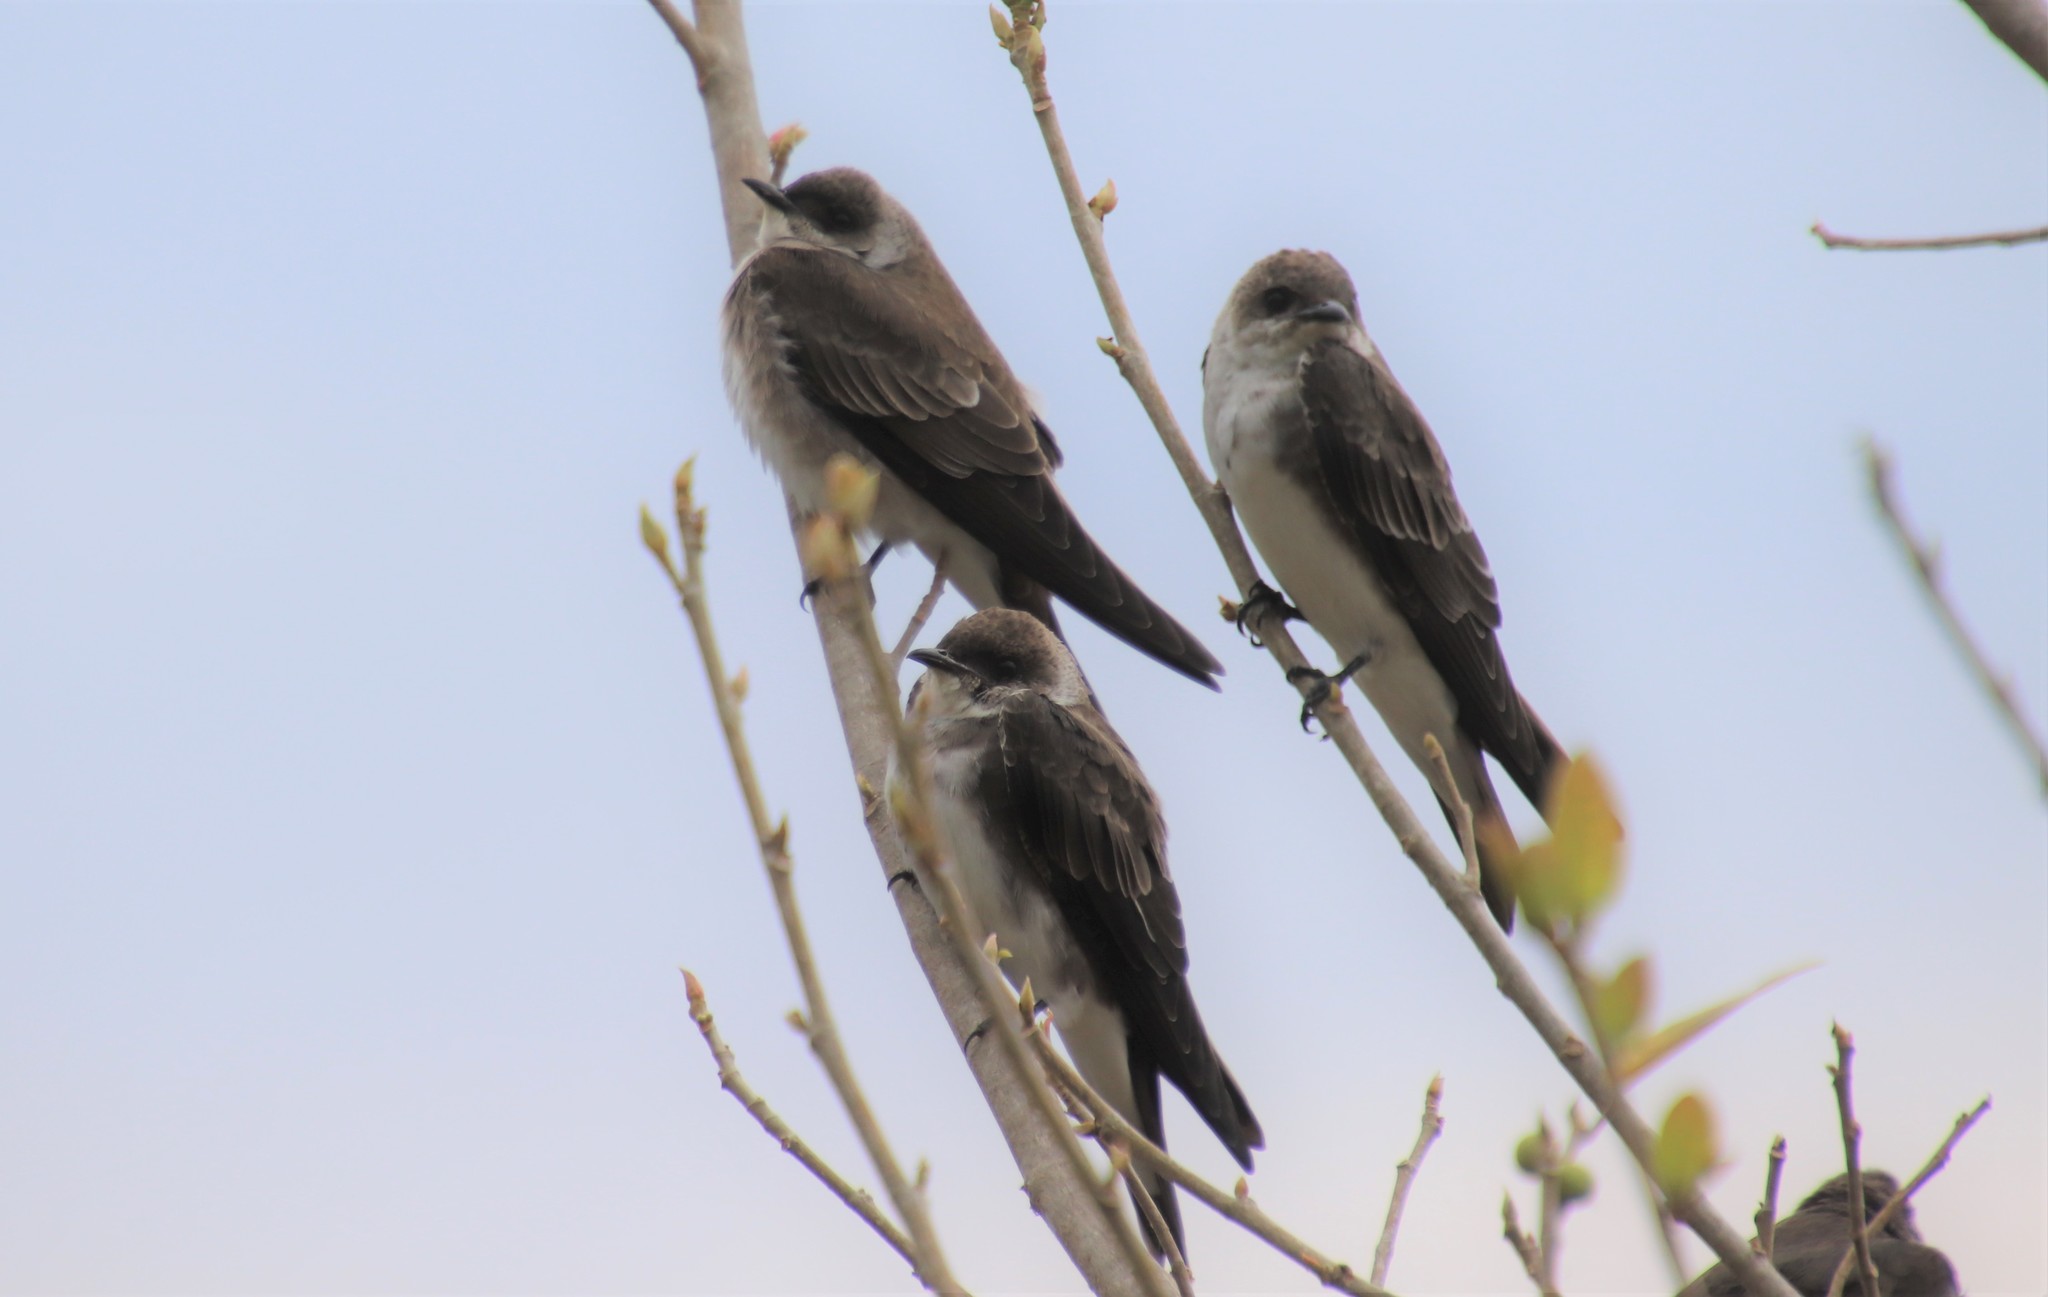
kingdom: Animalia
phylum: Chordata
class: Aves
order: Passeriformes
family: Hirundinidae
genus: Progne
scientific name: Progne tapera
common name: Brown-chested martin
